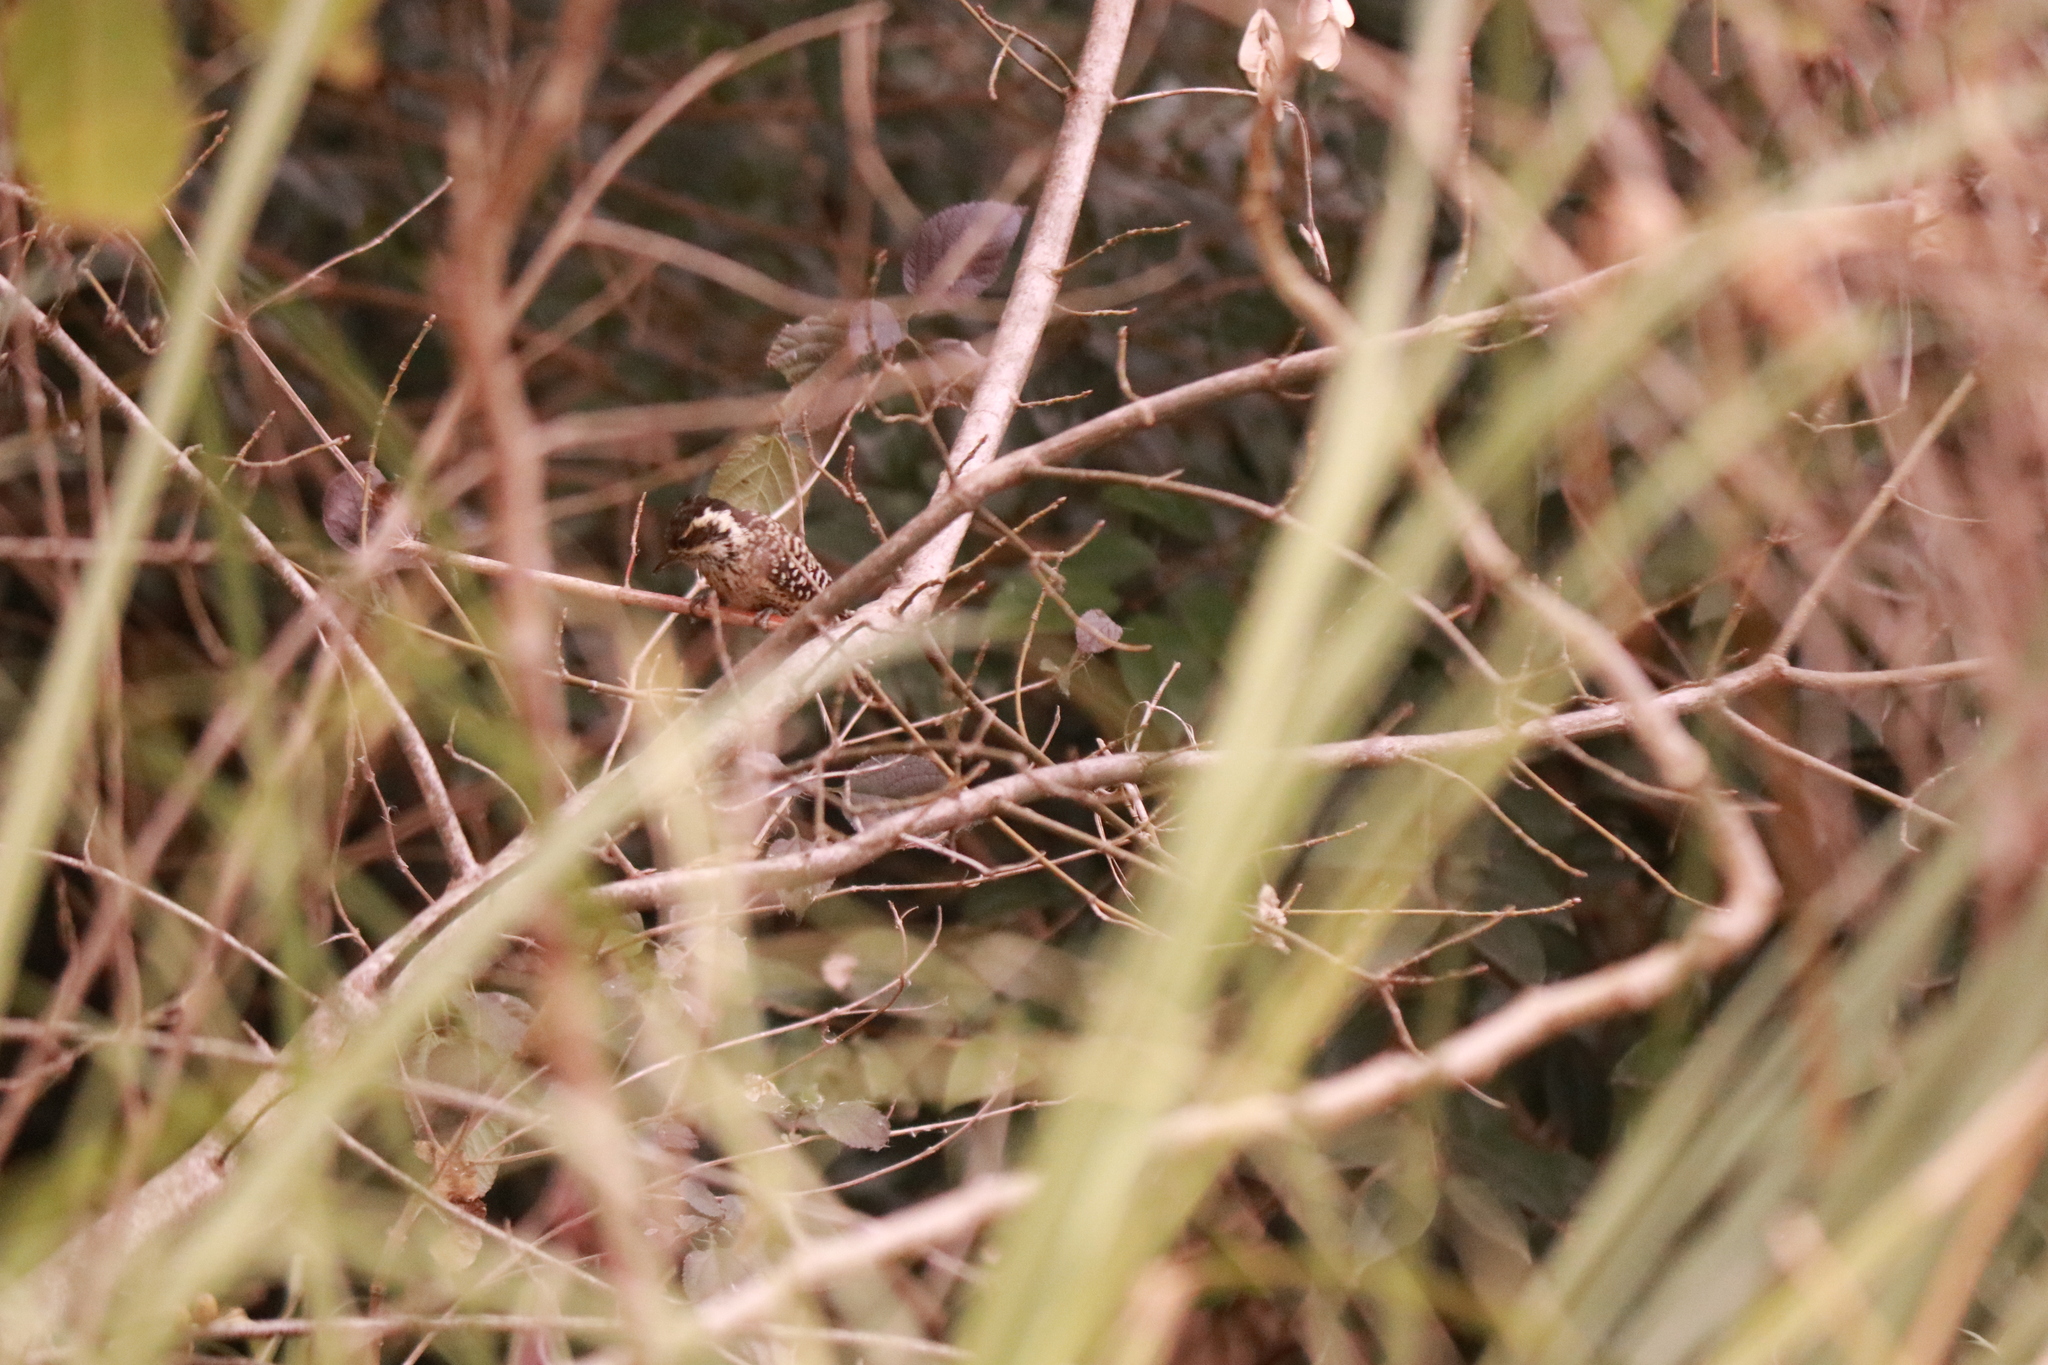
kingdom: Animalia
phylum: Chordata
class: Aves
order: Piciformes
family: Picidae
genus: Veniliornis
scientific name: Veniliornis mixtus
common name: Checkered woodpecker
